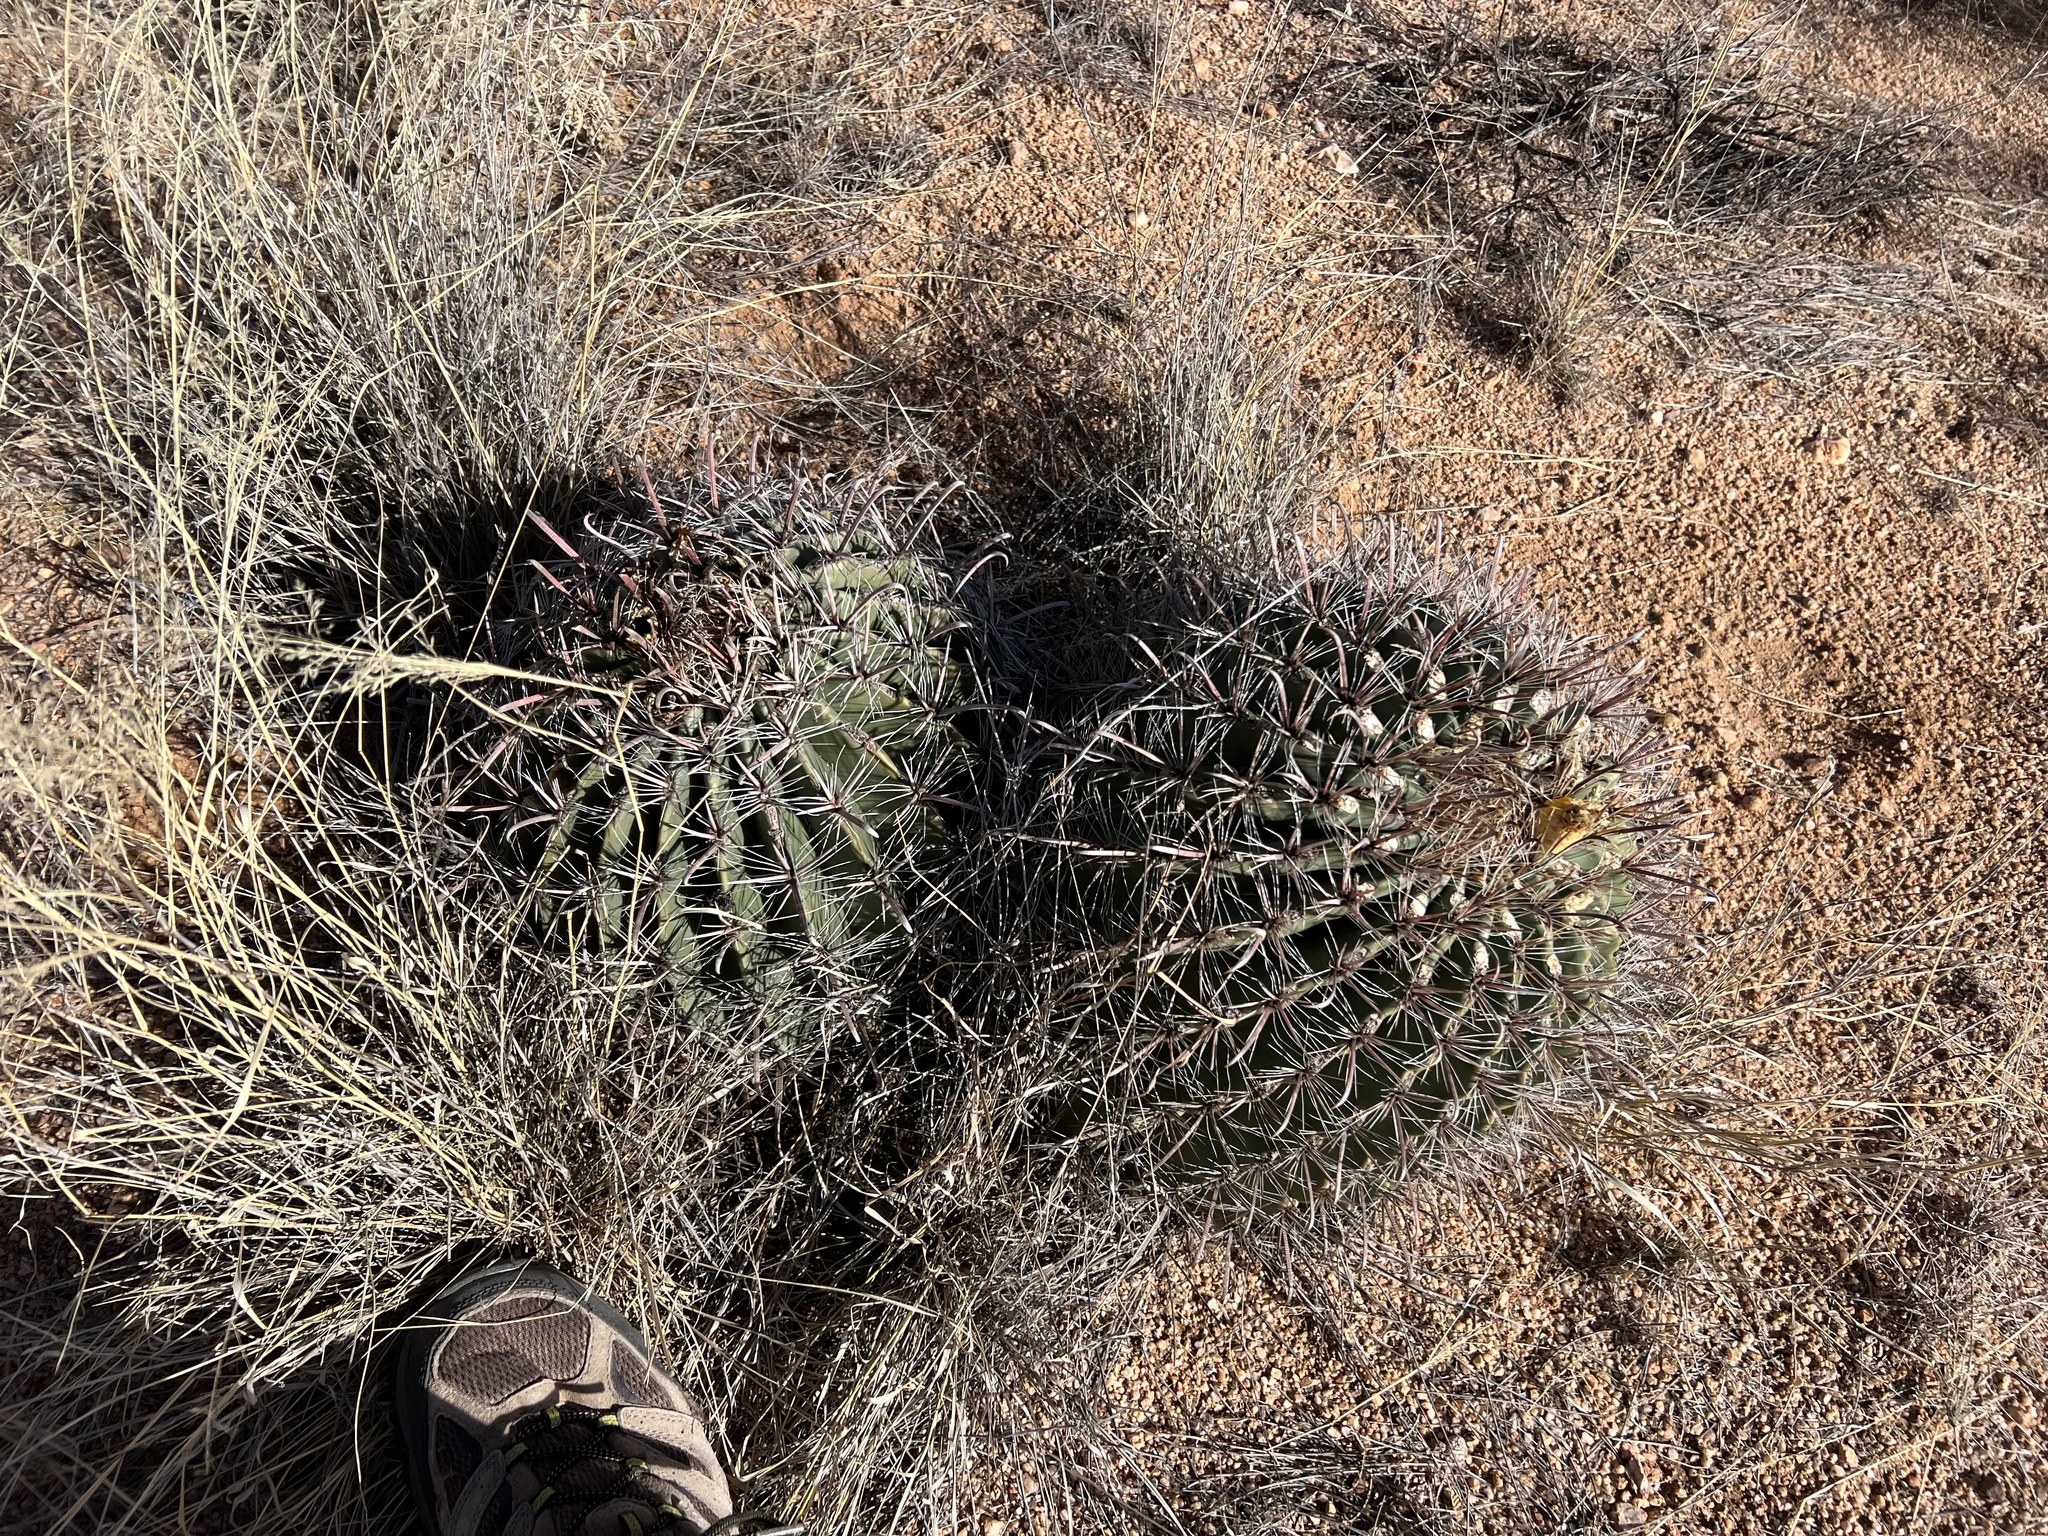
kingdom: Plantae
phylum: Tracheophyta
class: Magnoliopsida
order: Caryophyllales
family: Cactaceae
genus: Ferocactus
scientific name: Ferocactus wislizeni
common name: Candy barrel cactus
